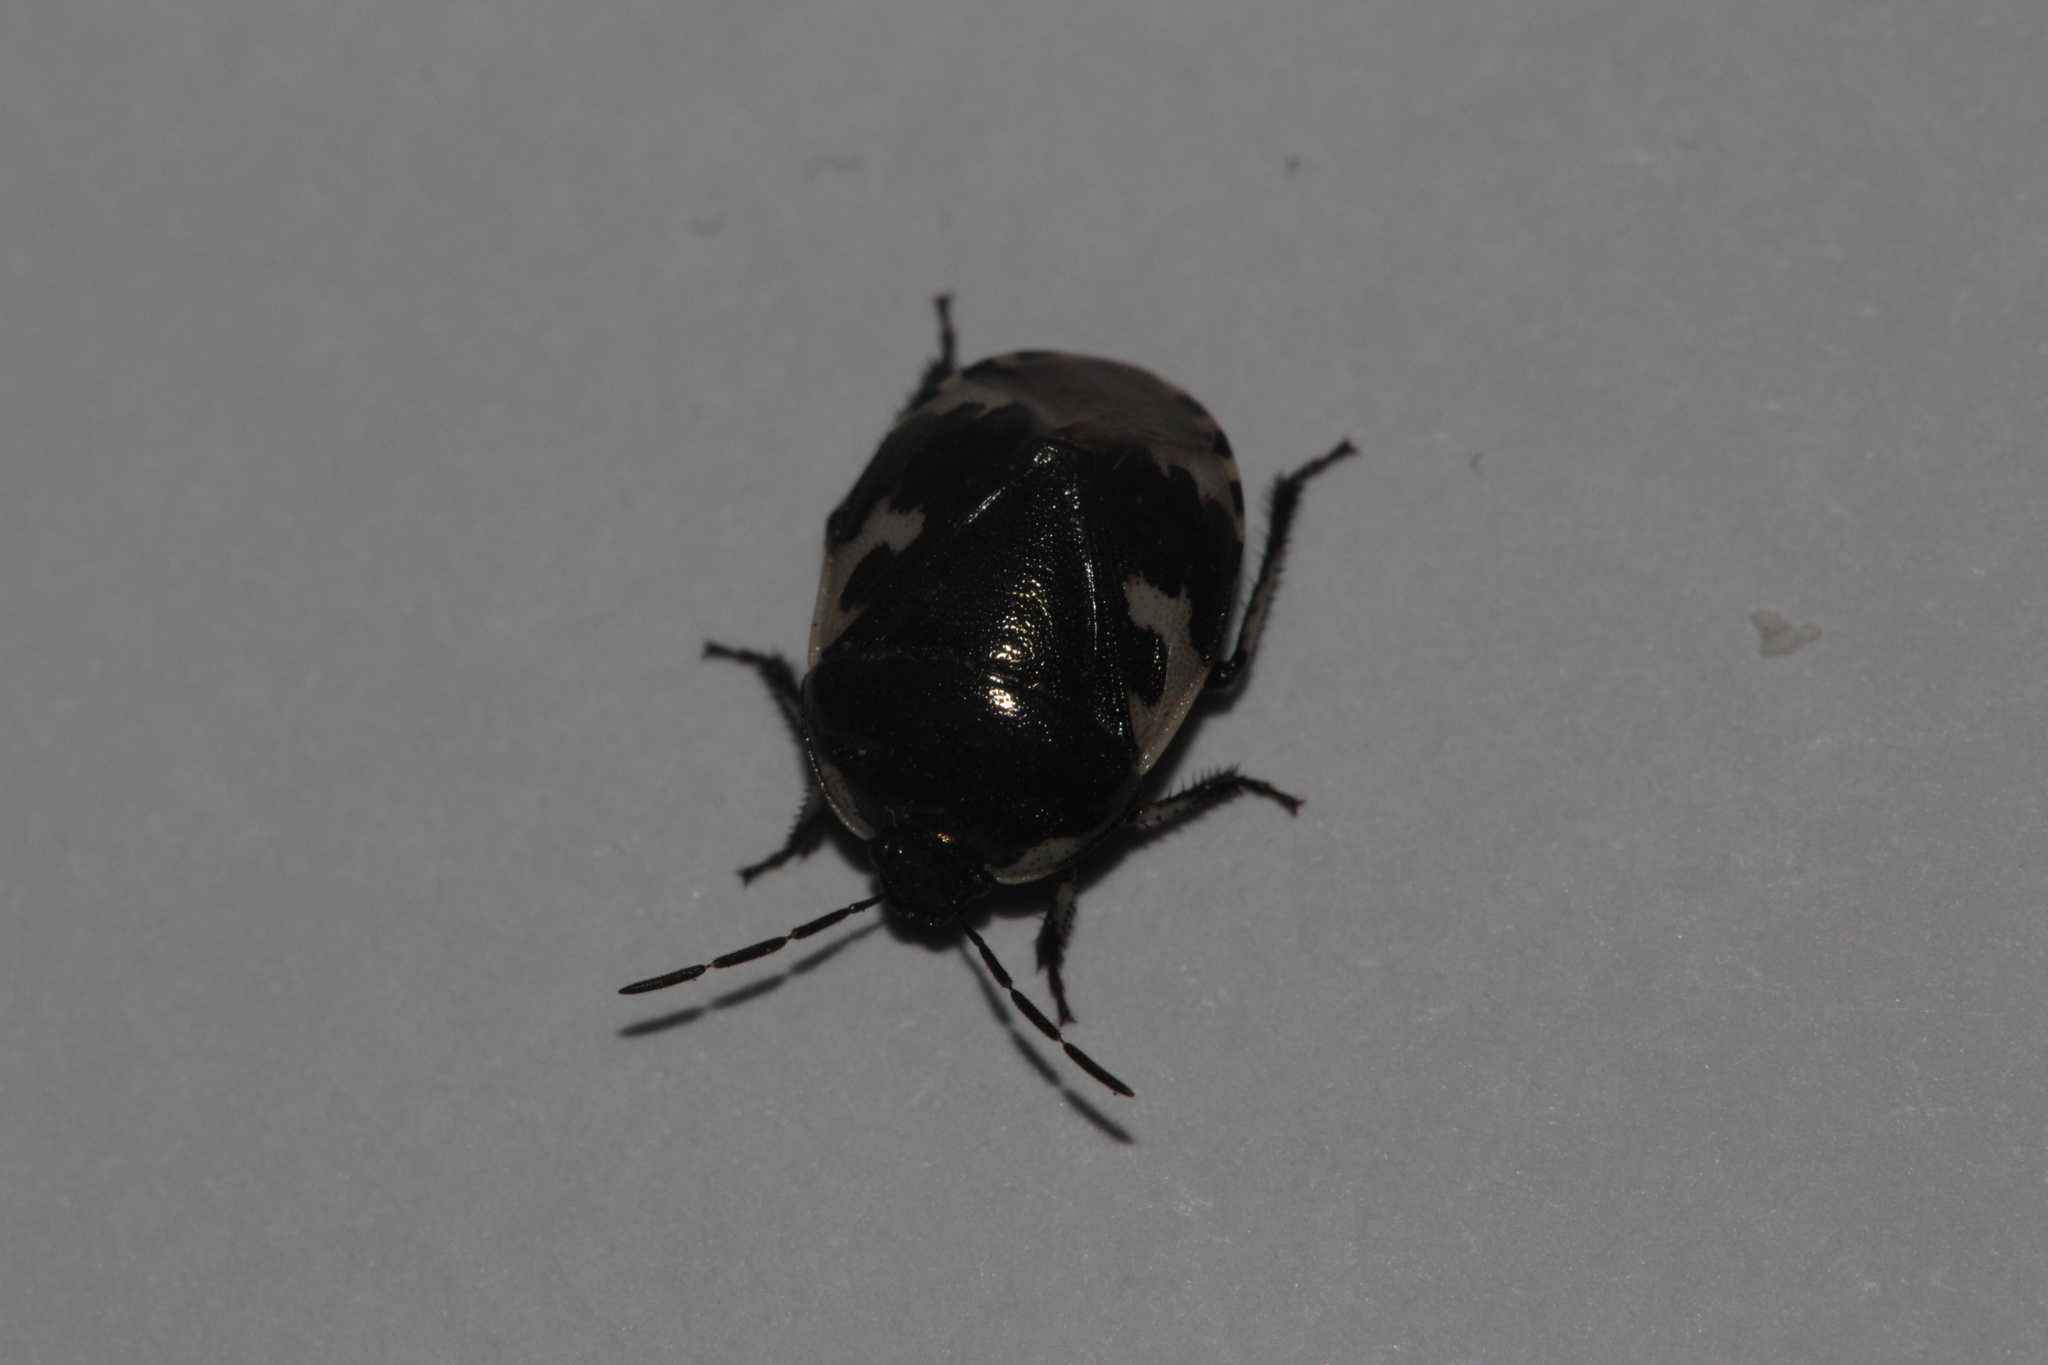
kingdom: Animalia
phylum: Arthropoda
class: Insecta
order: Hemiptera
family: Cydnidae
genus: Tritomegas
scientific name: Tritomegas bicolor
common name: Pied shieldbug
